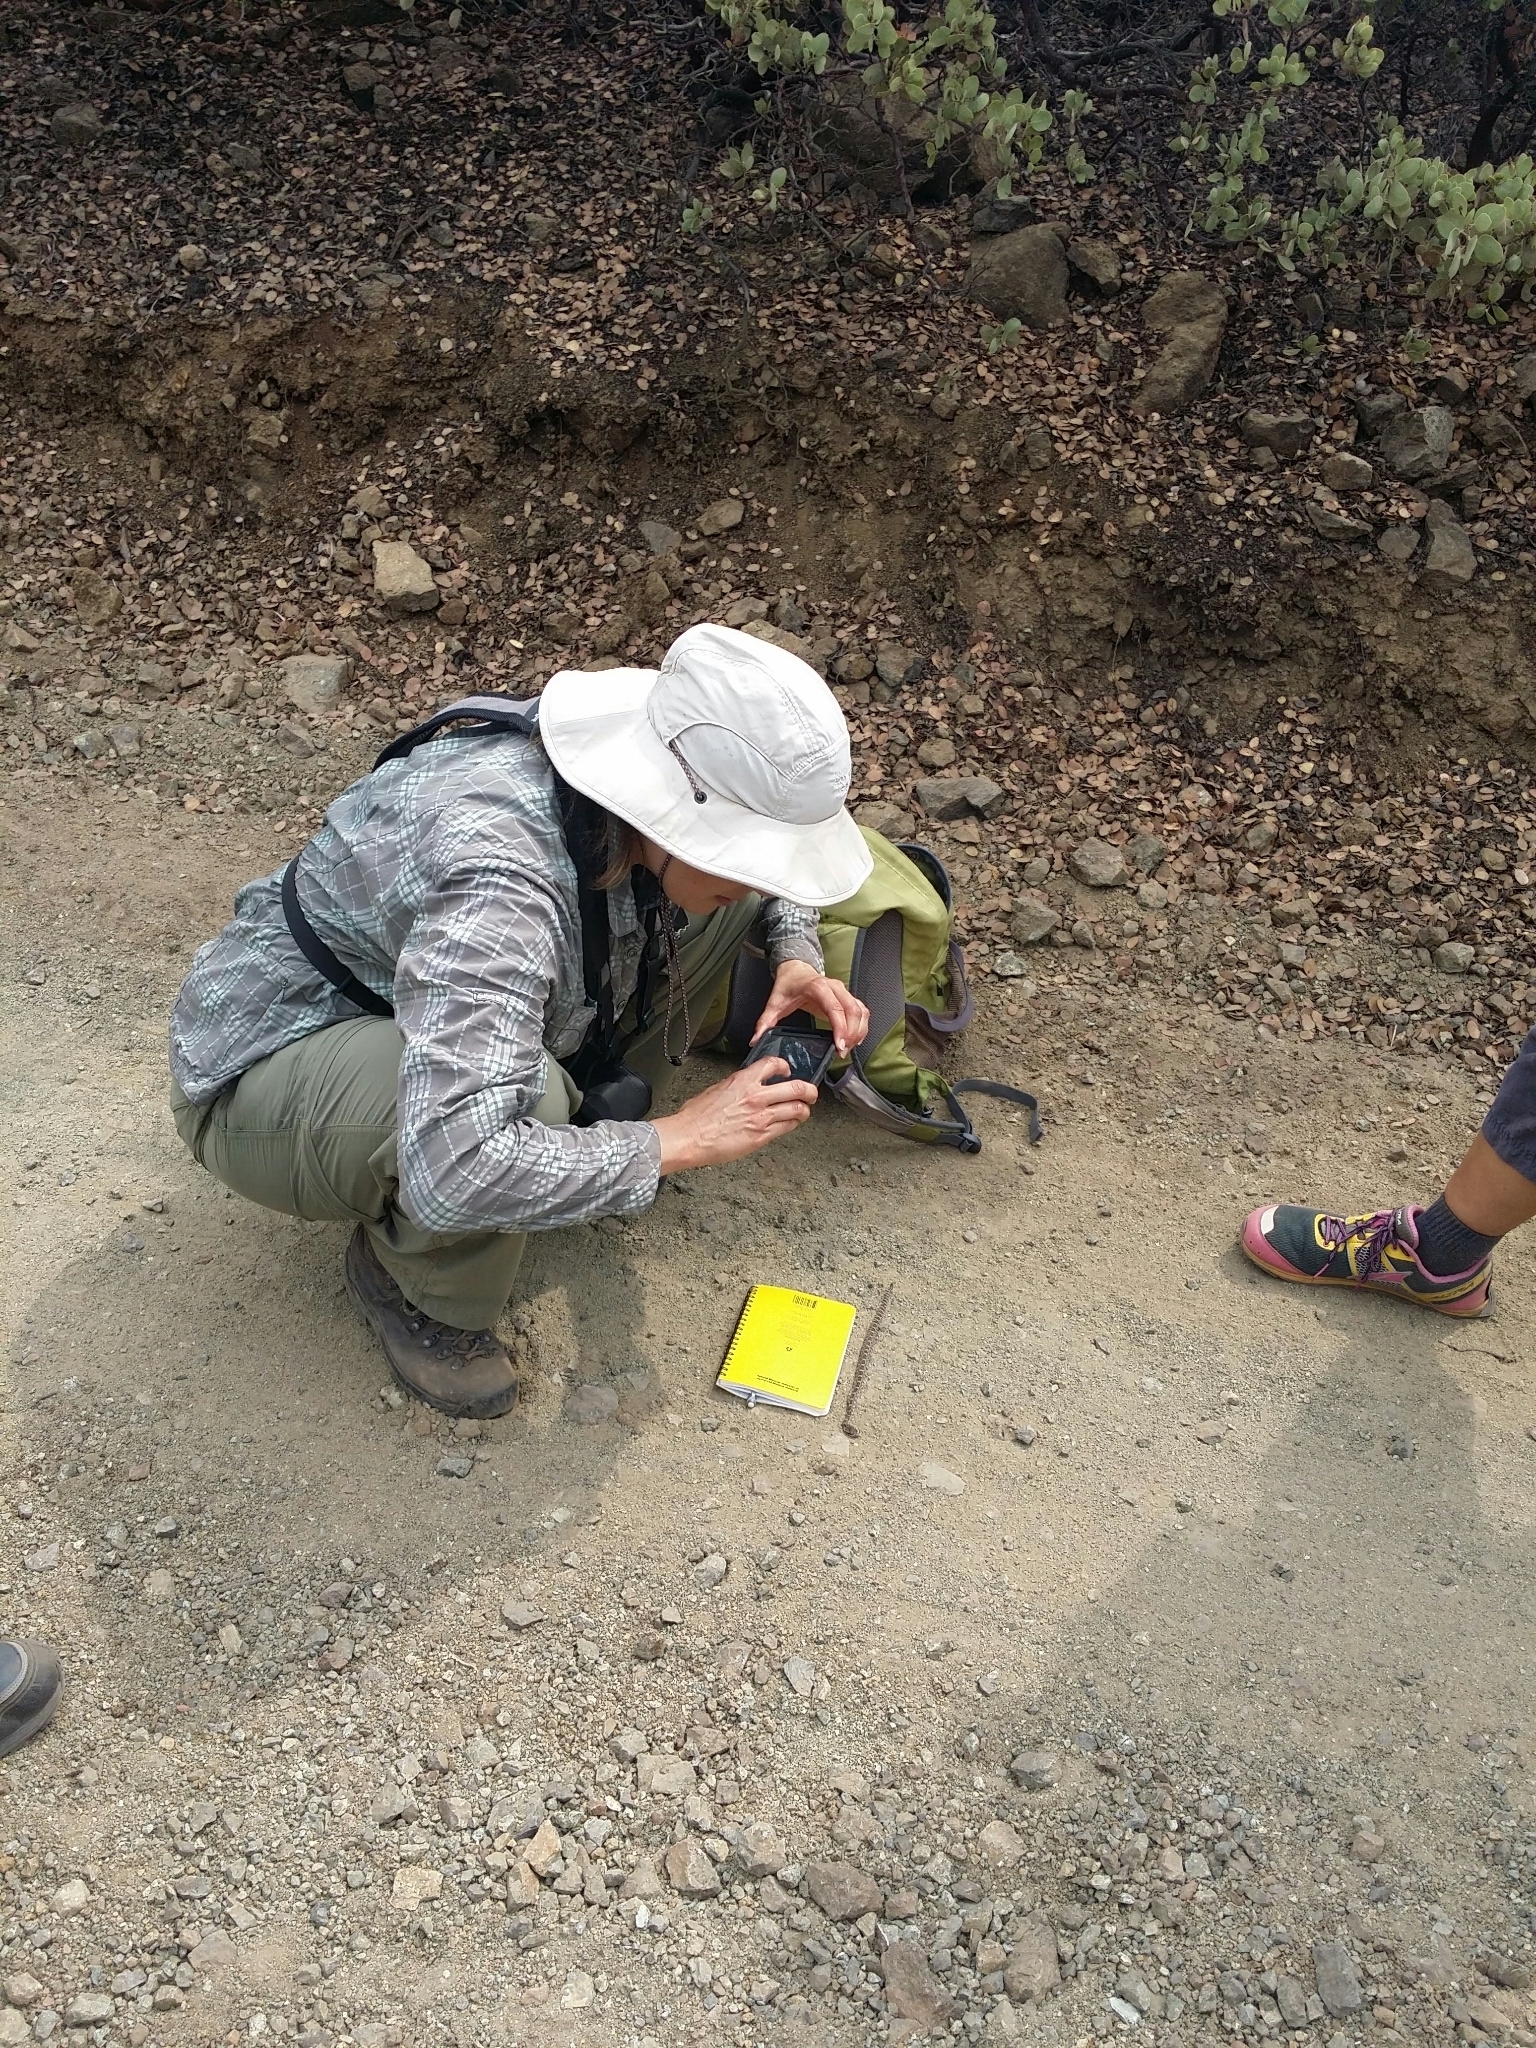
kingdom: Animalia
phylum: Chordata
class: Squamata
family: Viperidae
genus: Crotalus
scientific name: Crotalus oreganus
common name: Abyssus
